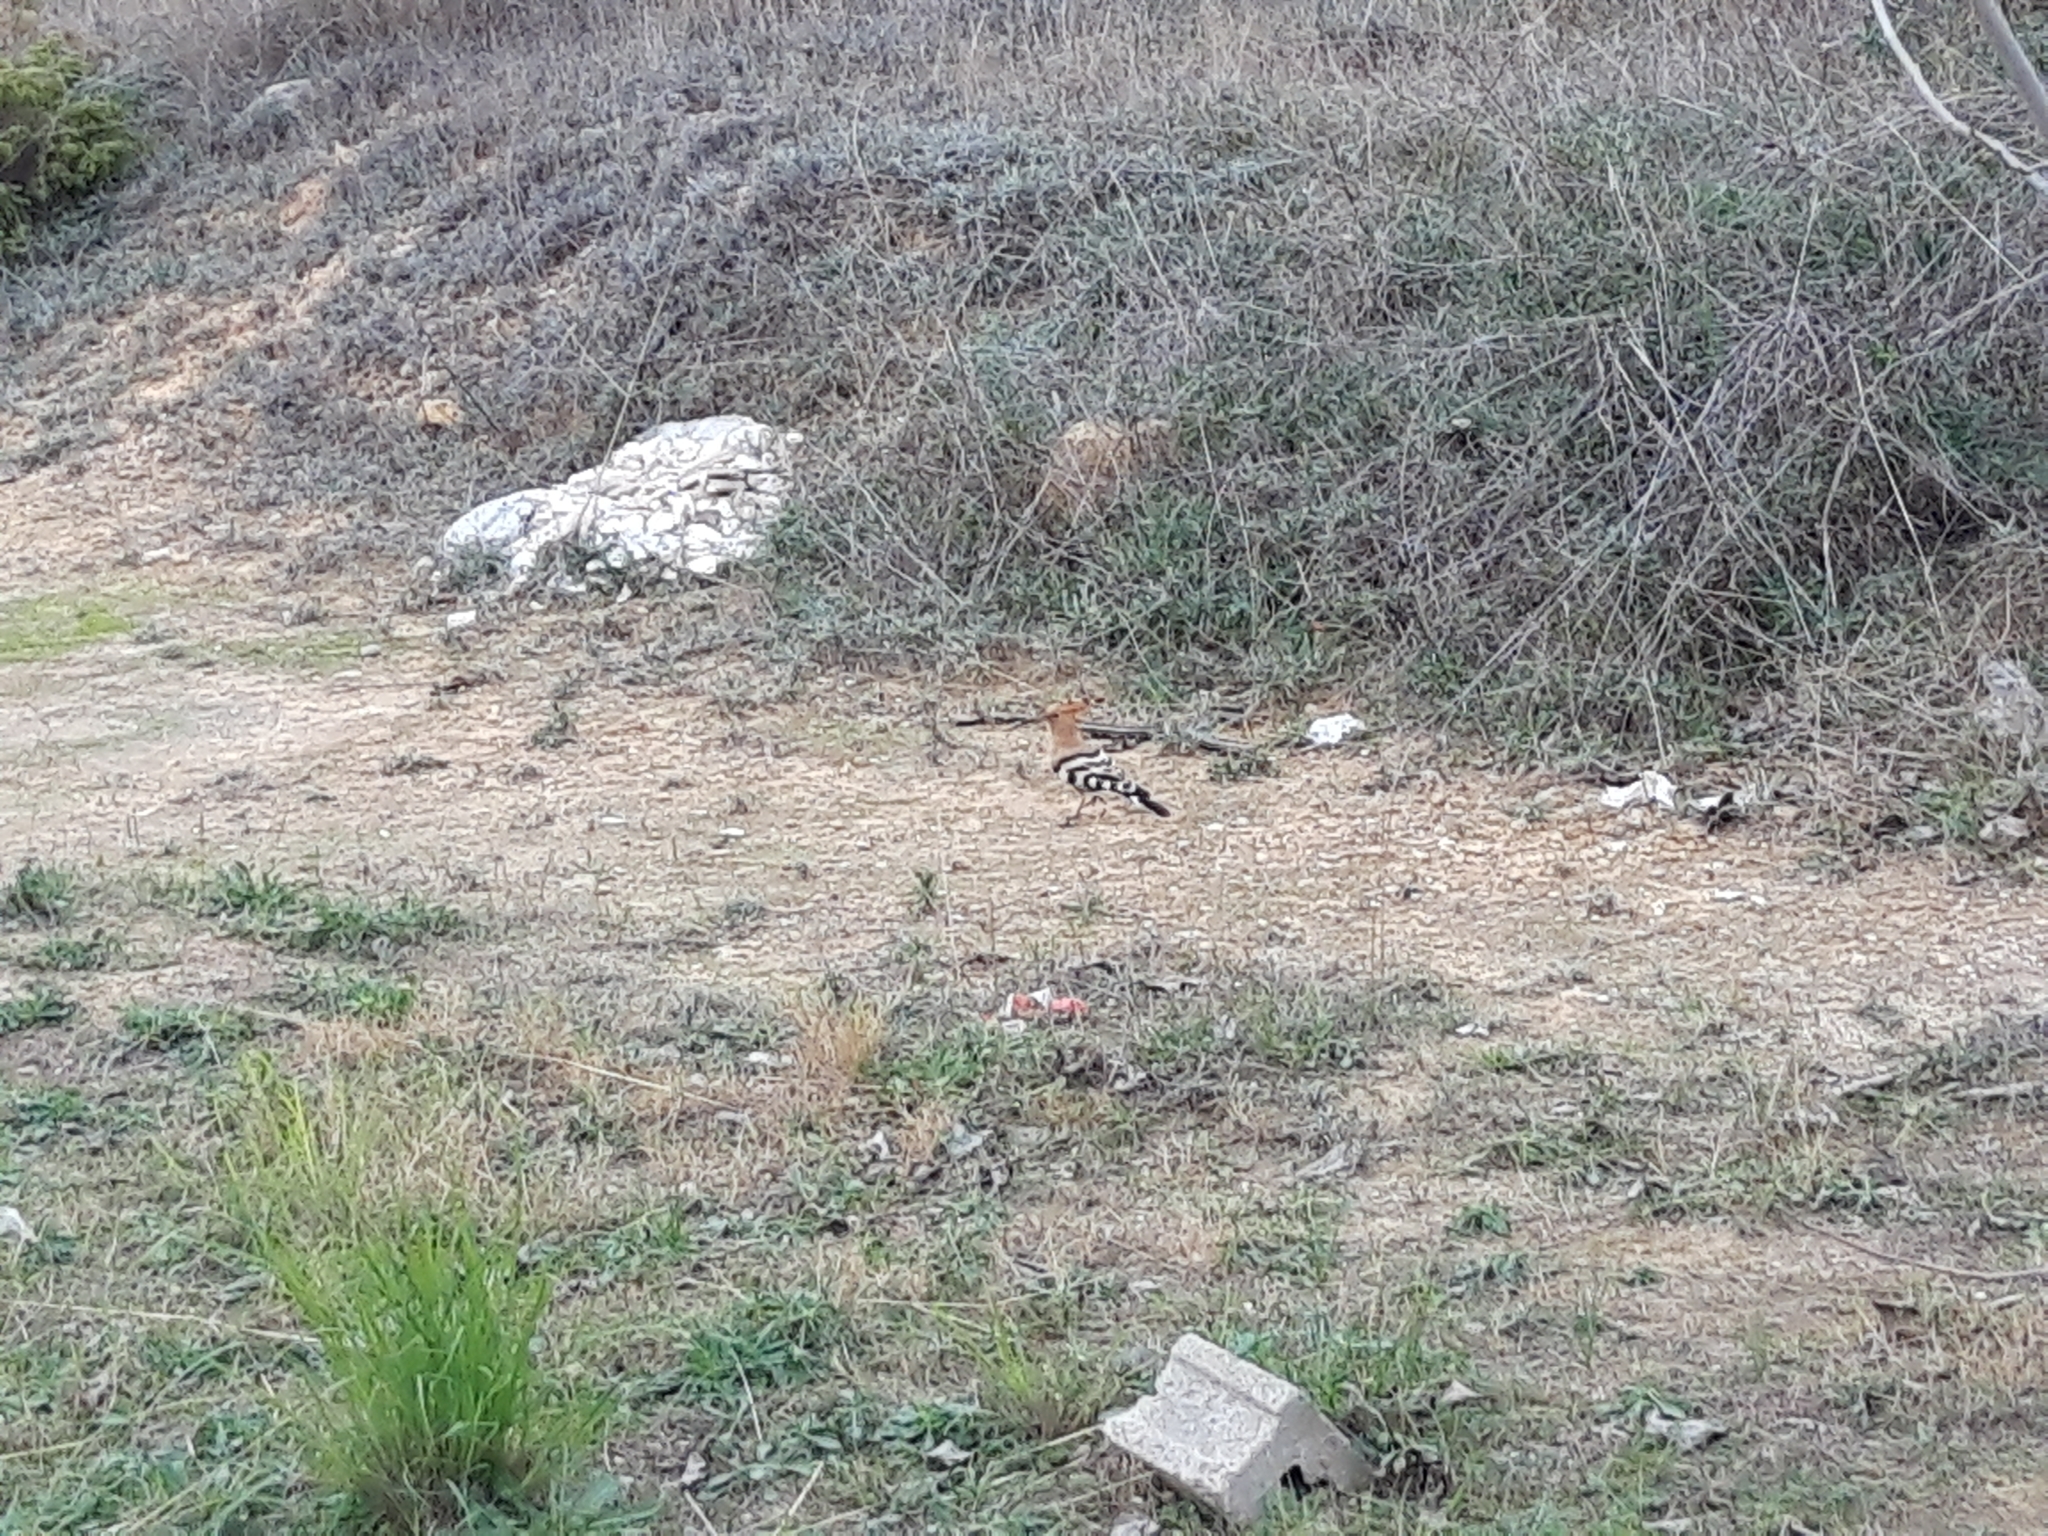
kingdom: Animalia
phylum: Chordata
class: Aves
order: Bucerotiformes
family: Upupidae
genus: Upupa
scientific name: Upupa epops
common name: Eurasian hoopoe
